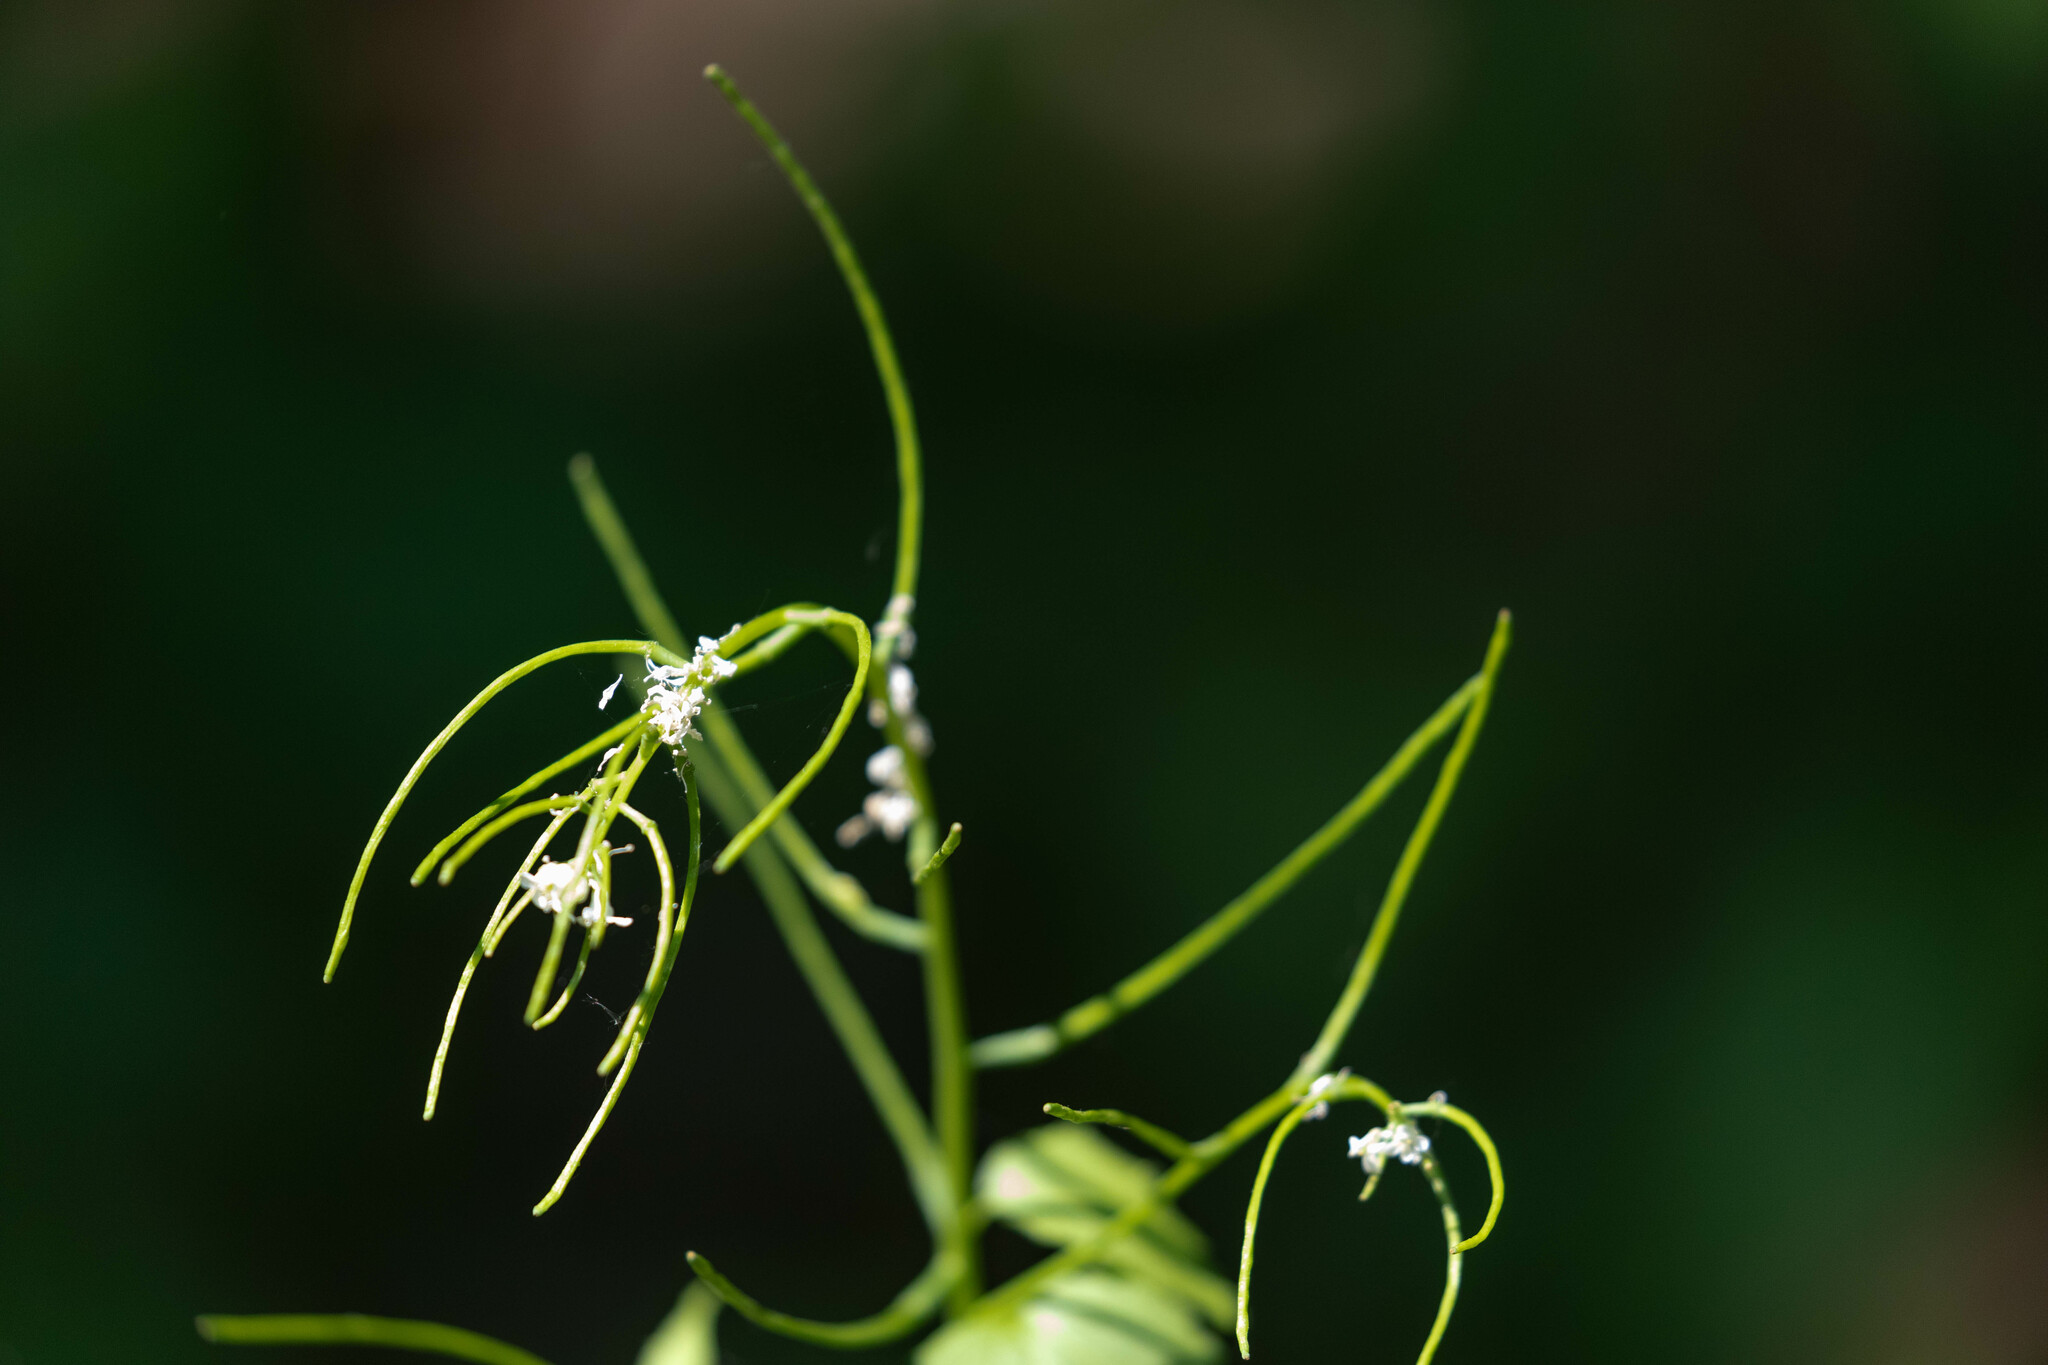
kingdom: Plantae
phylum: Tracheophyta
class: Magnoliopsida
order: Brassicales
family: Brassicaceae
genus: Alliaria
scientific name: Alliaria petiolata
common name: Garlic mustard
